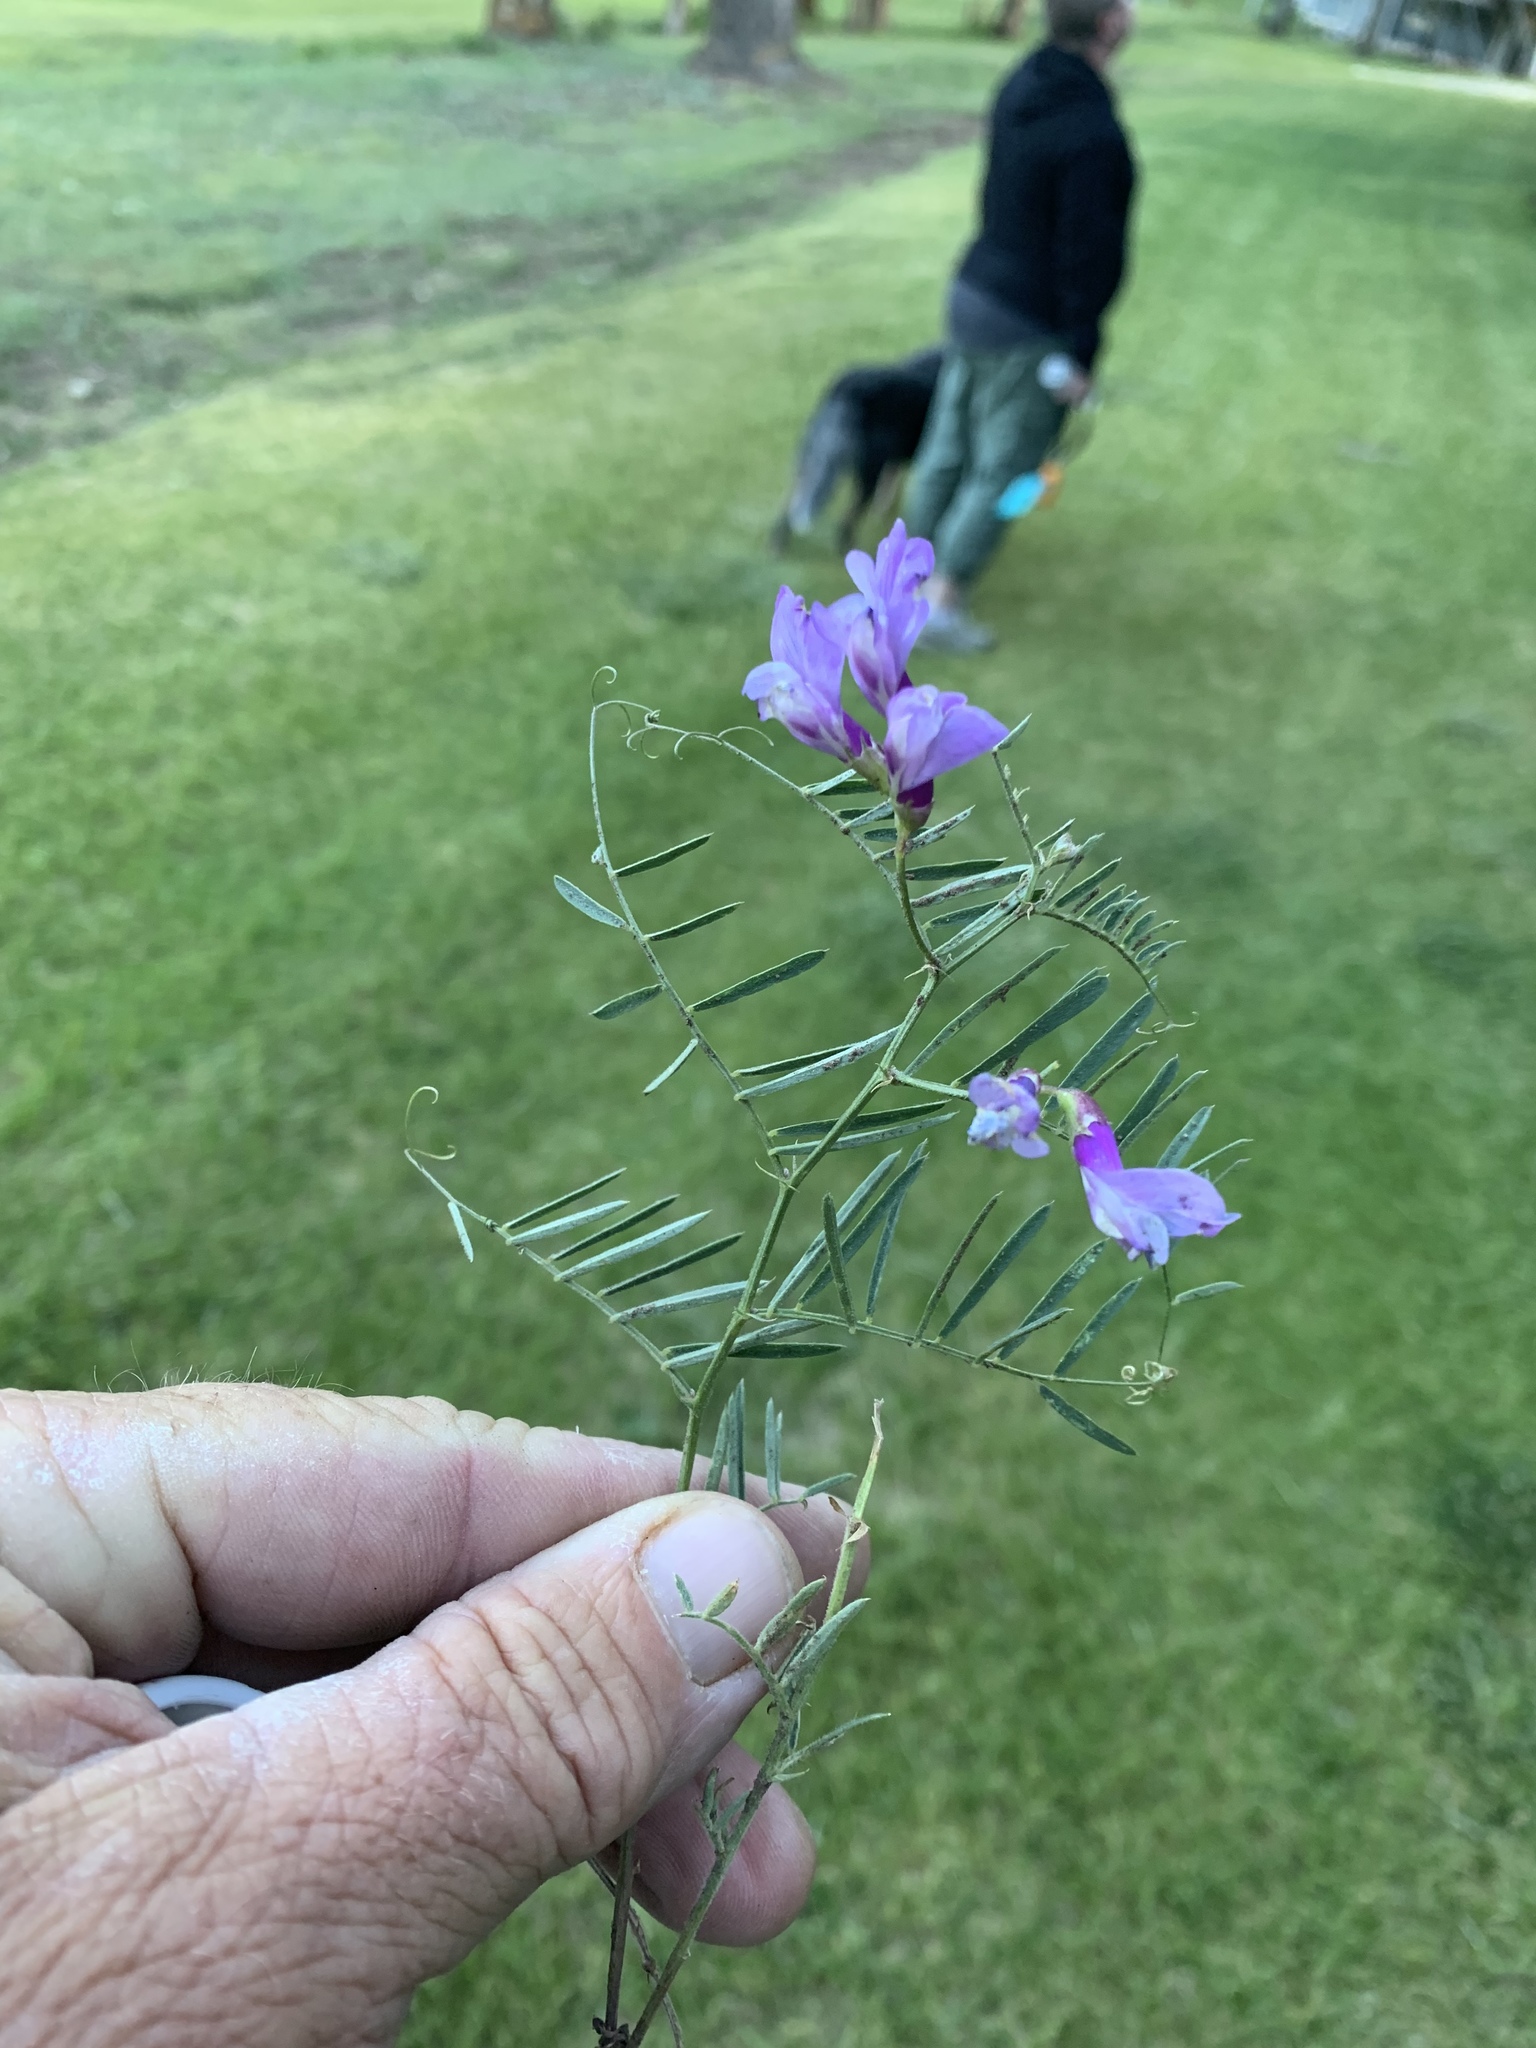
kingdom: Plantae
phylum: Tracheophyta
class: Magnoliopsida
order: Fabales
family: Fabaceae
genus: Vicia
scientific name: Vicia americana
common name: American vetch
